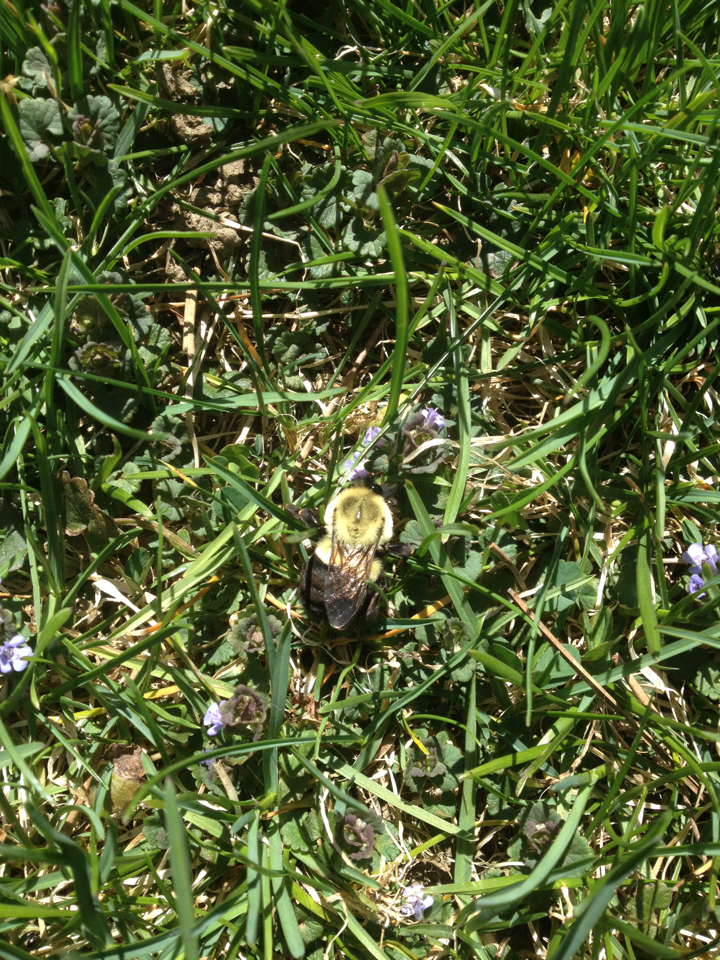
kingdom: Animalia
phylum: Arthropoda
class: Insecta
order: Hymenoptera
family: Apidae
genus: Bombus
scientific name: Bombus impatiens
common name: Common eastern bumble bee
